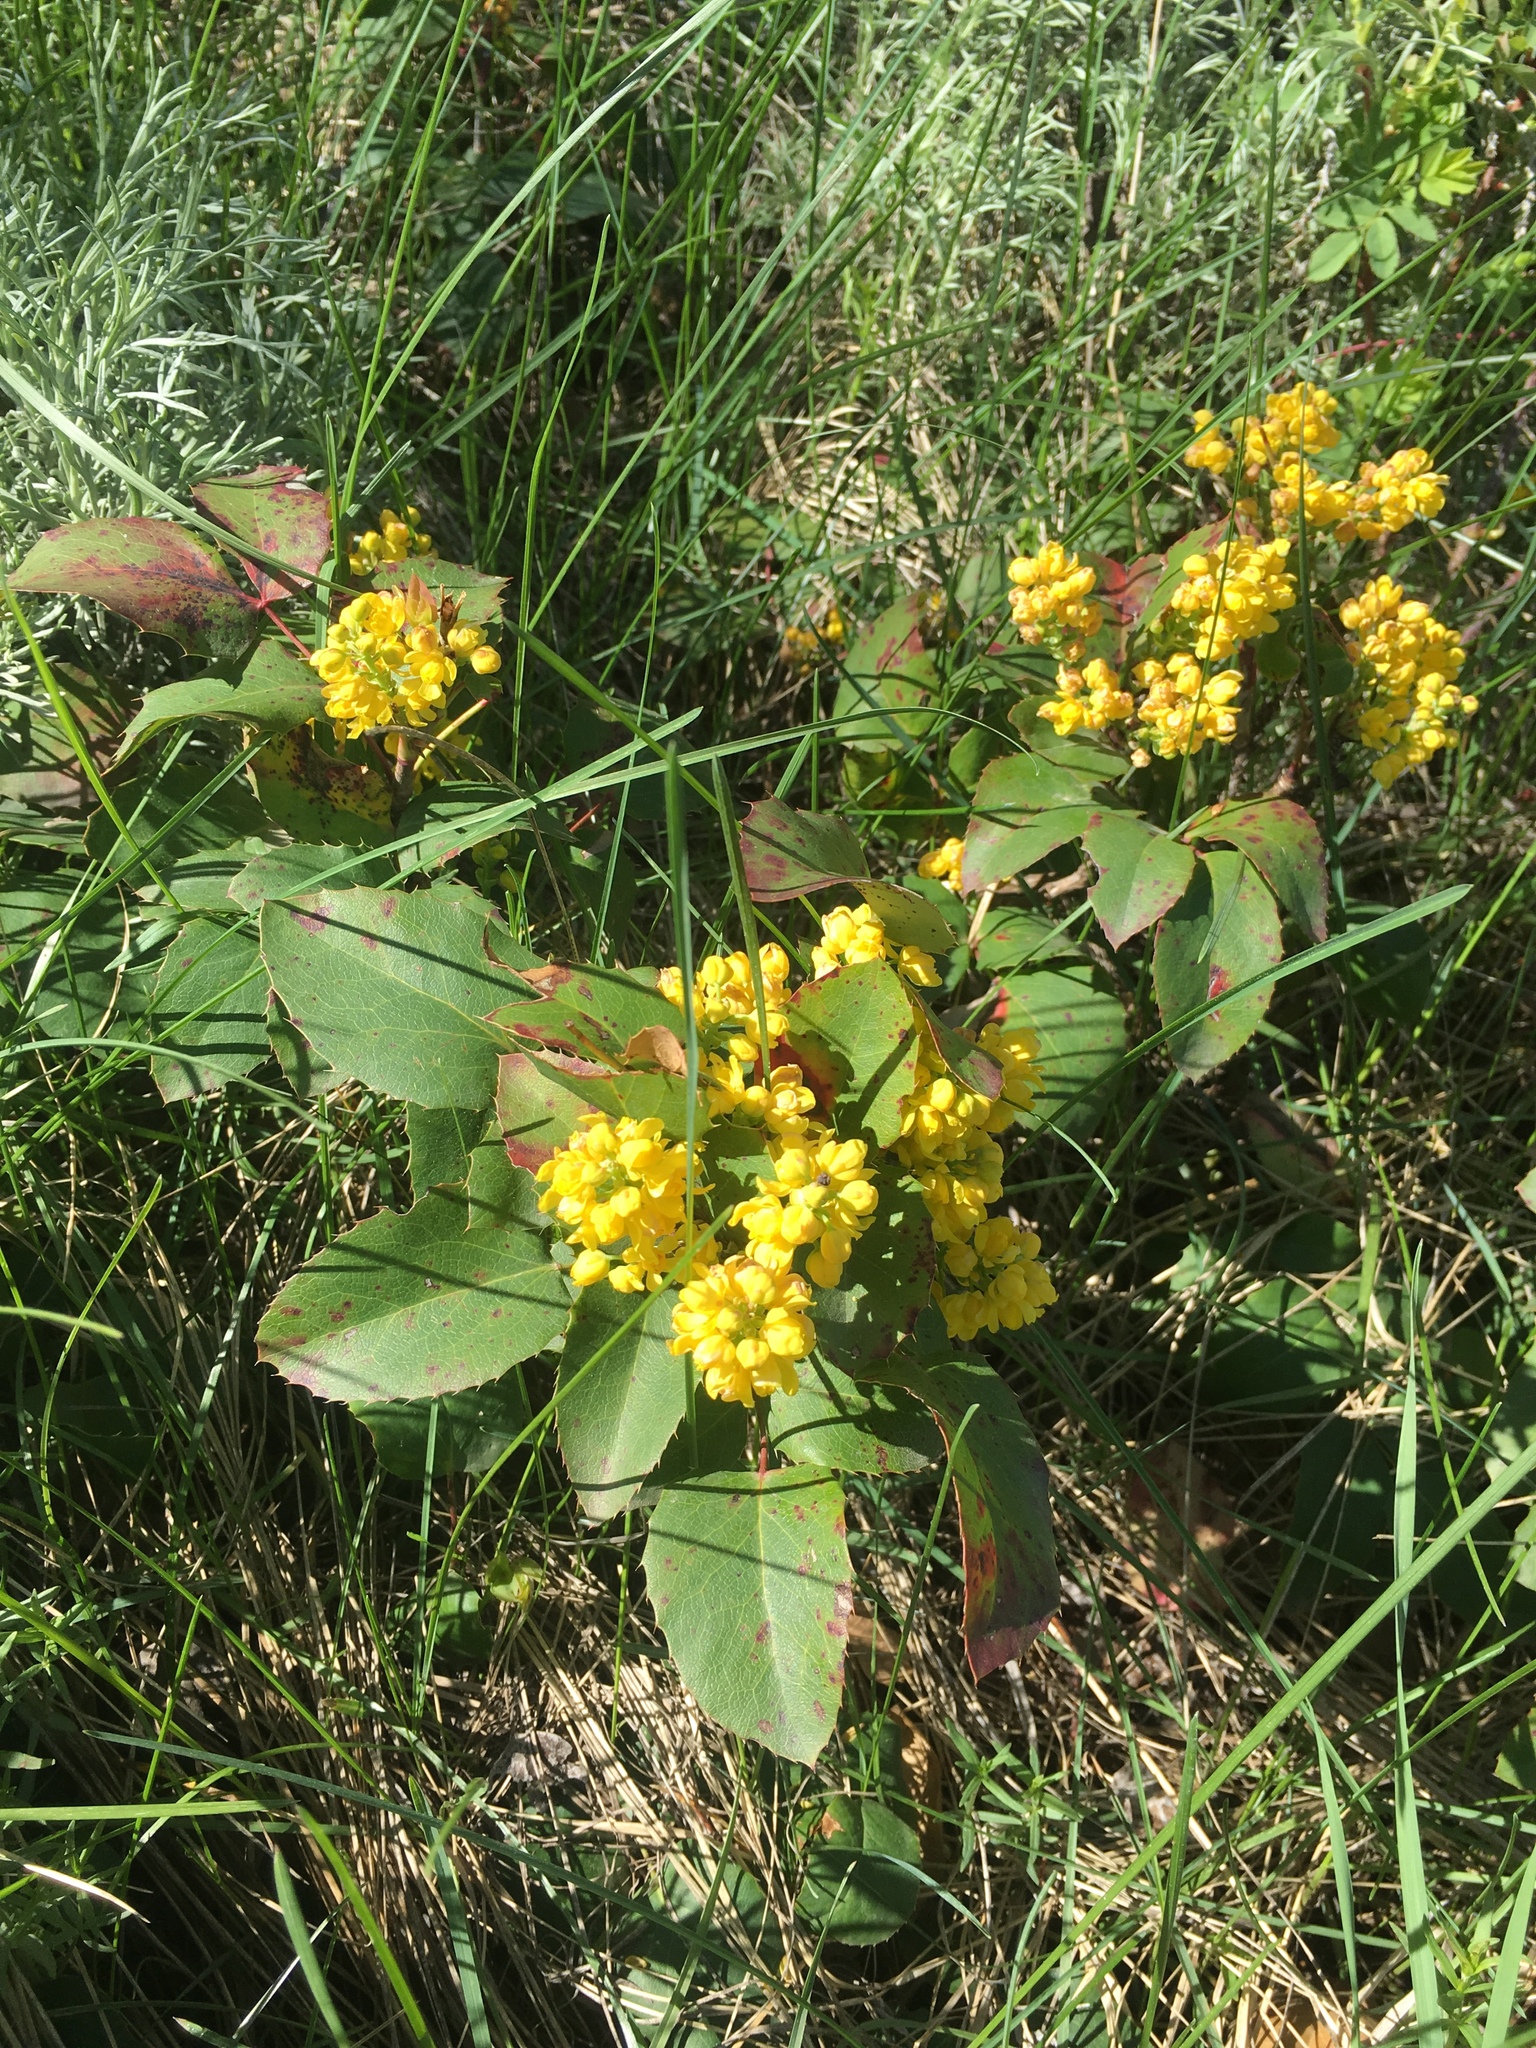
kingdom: Plantae
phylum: Tracheophyta
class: Magnoliopsida
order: Ranunculales
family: Berberidaceae
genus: Mahonia
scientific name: Mahonia repens
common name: Creeping oregon-grape
